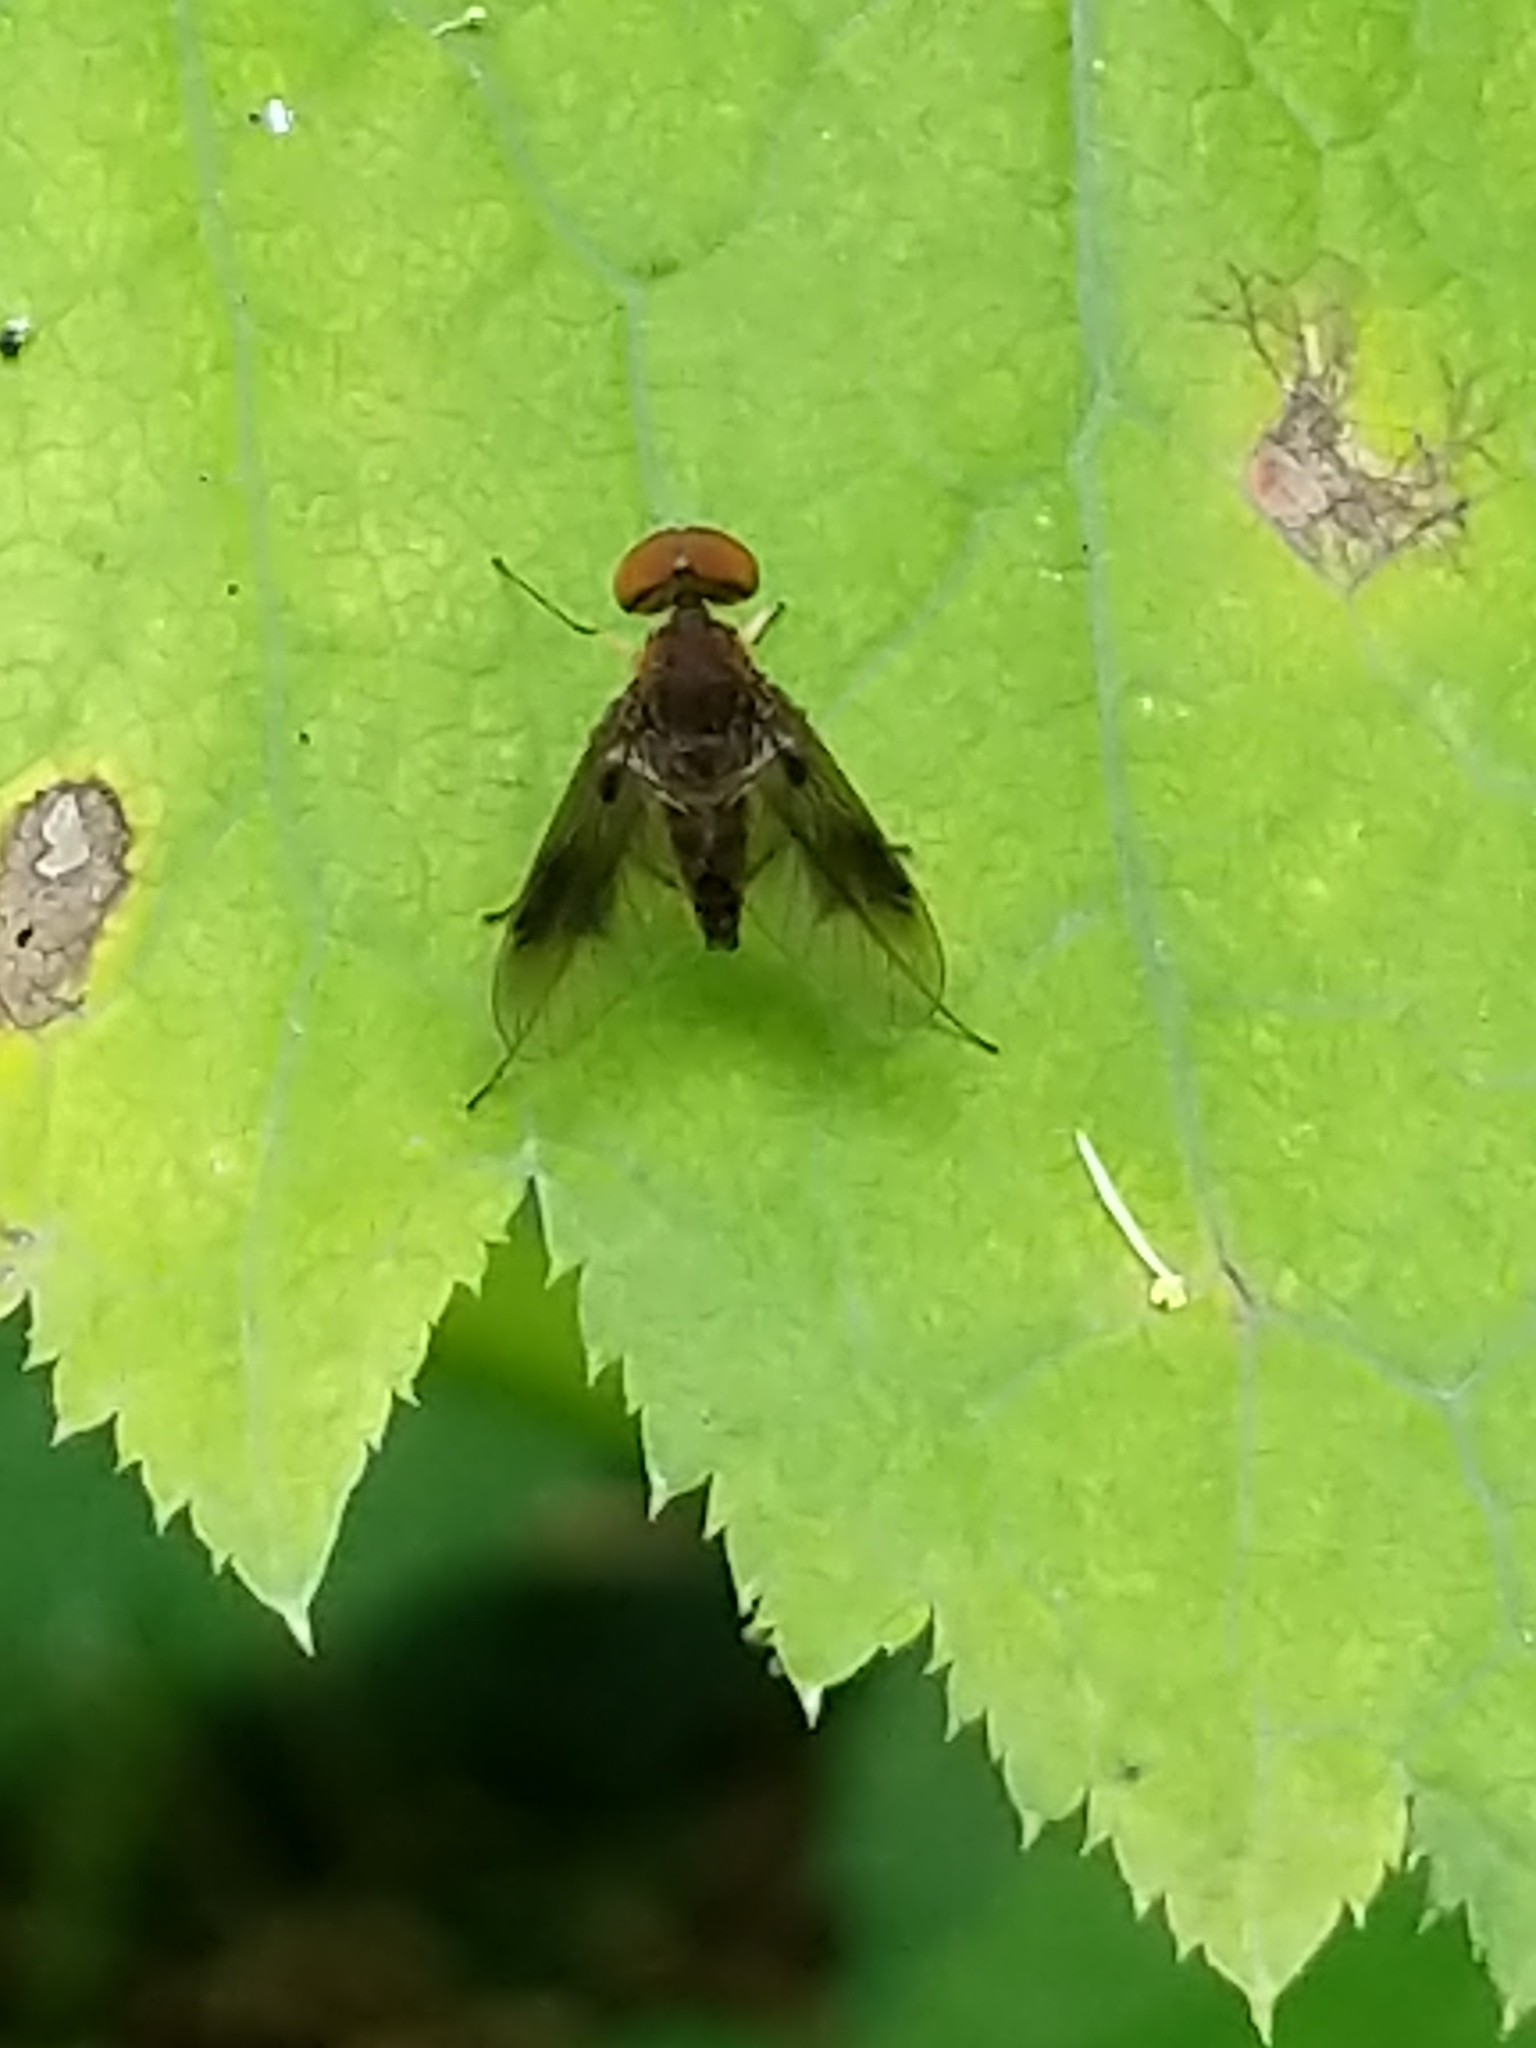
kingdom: Animalia
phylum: Arthropoda
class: Insecta
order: Diptera
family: Rhagionidae
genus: Chrysopilus
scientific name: Chrysopilus quadratus
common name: Quadrate snipe fly
